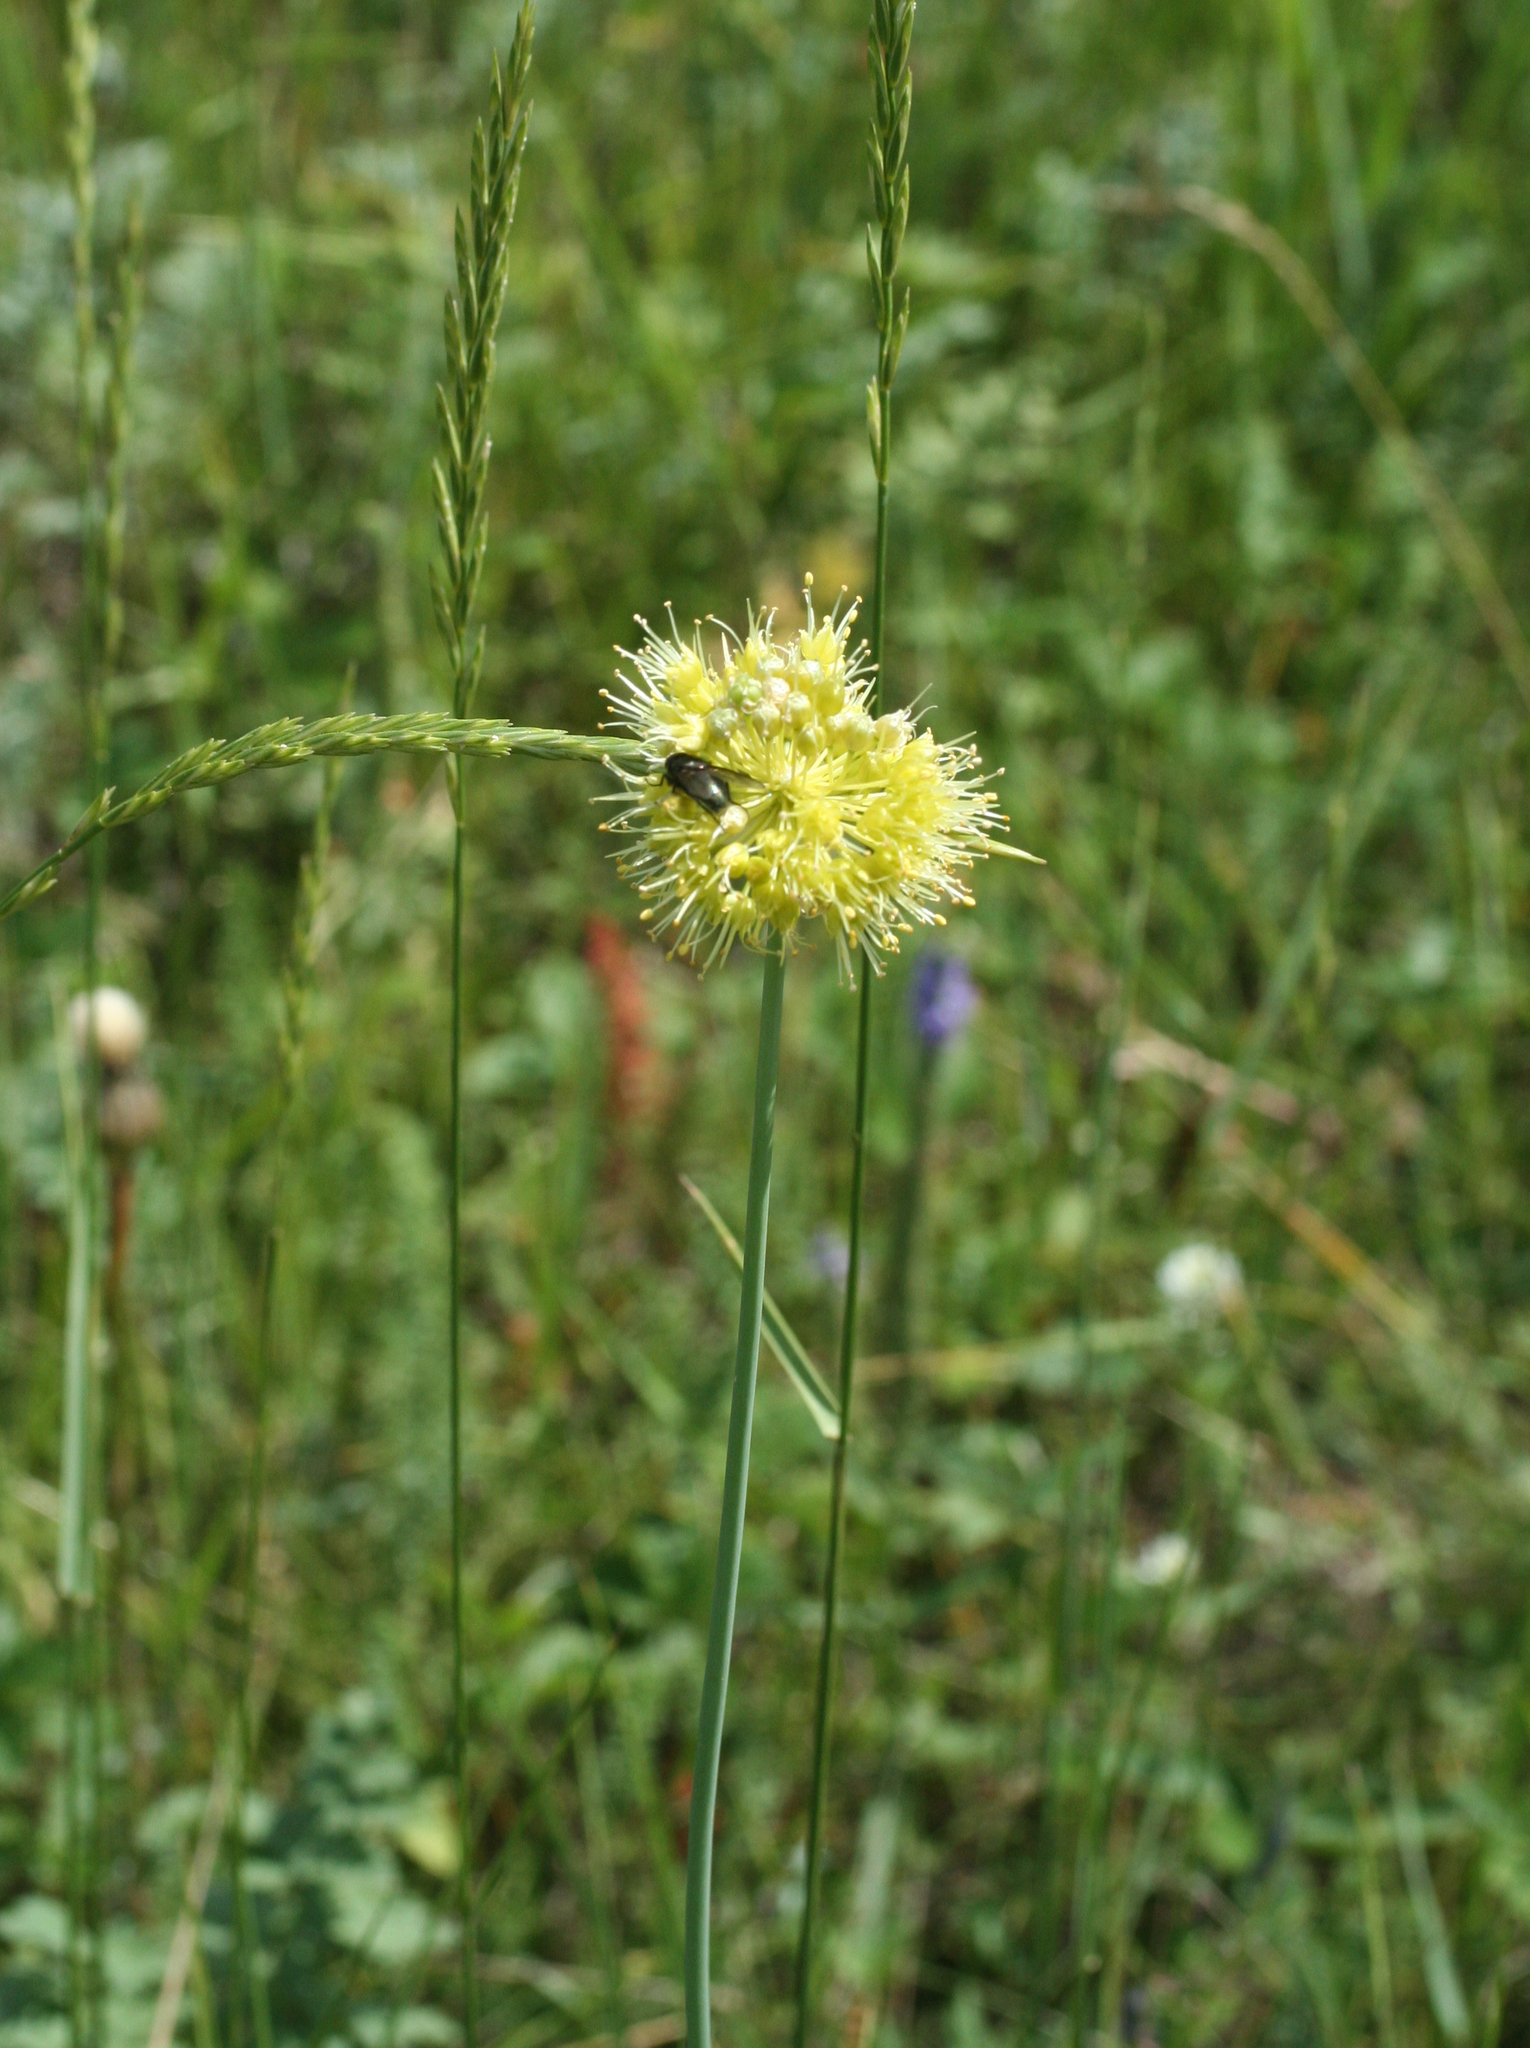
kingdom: Plantae
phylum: Tracheophyta
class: Liliopsida
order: Asparagales
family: Amaryllidaceae
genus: Allium
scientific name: Allium obliquum
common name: Oblique onion
